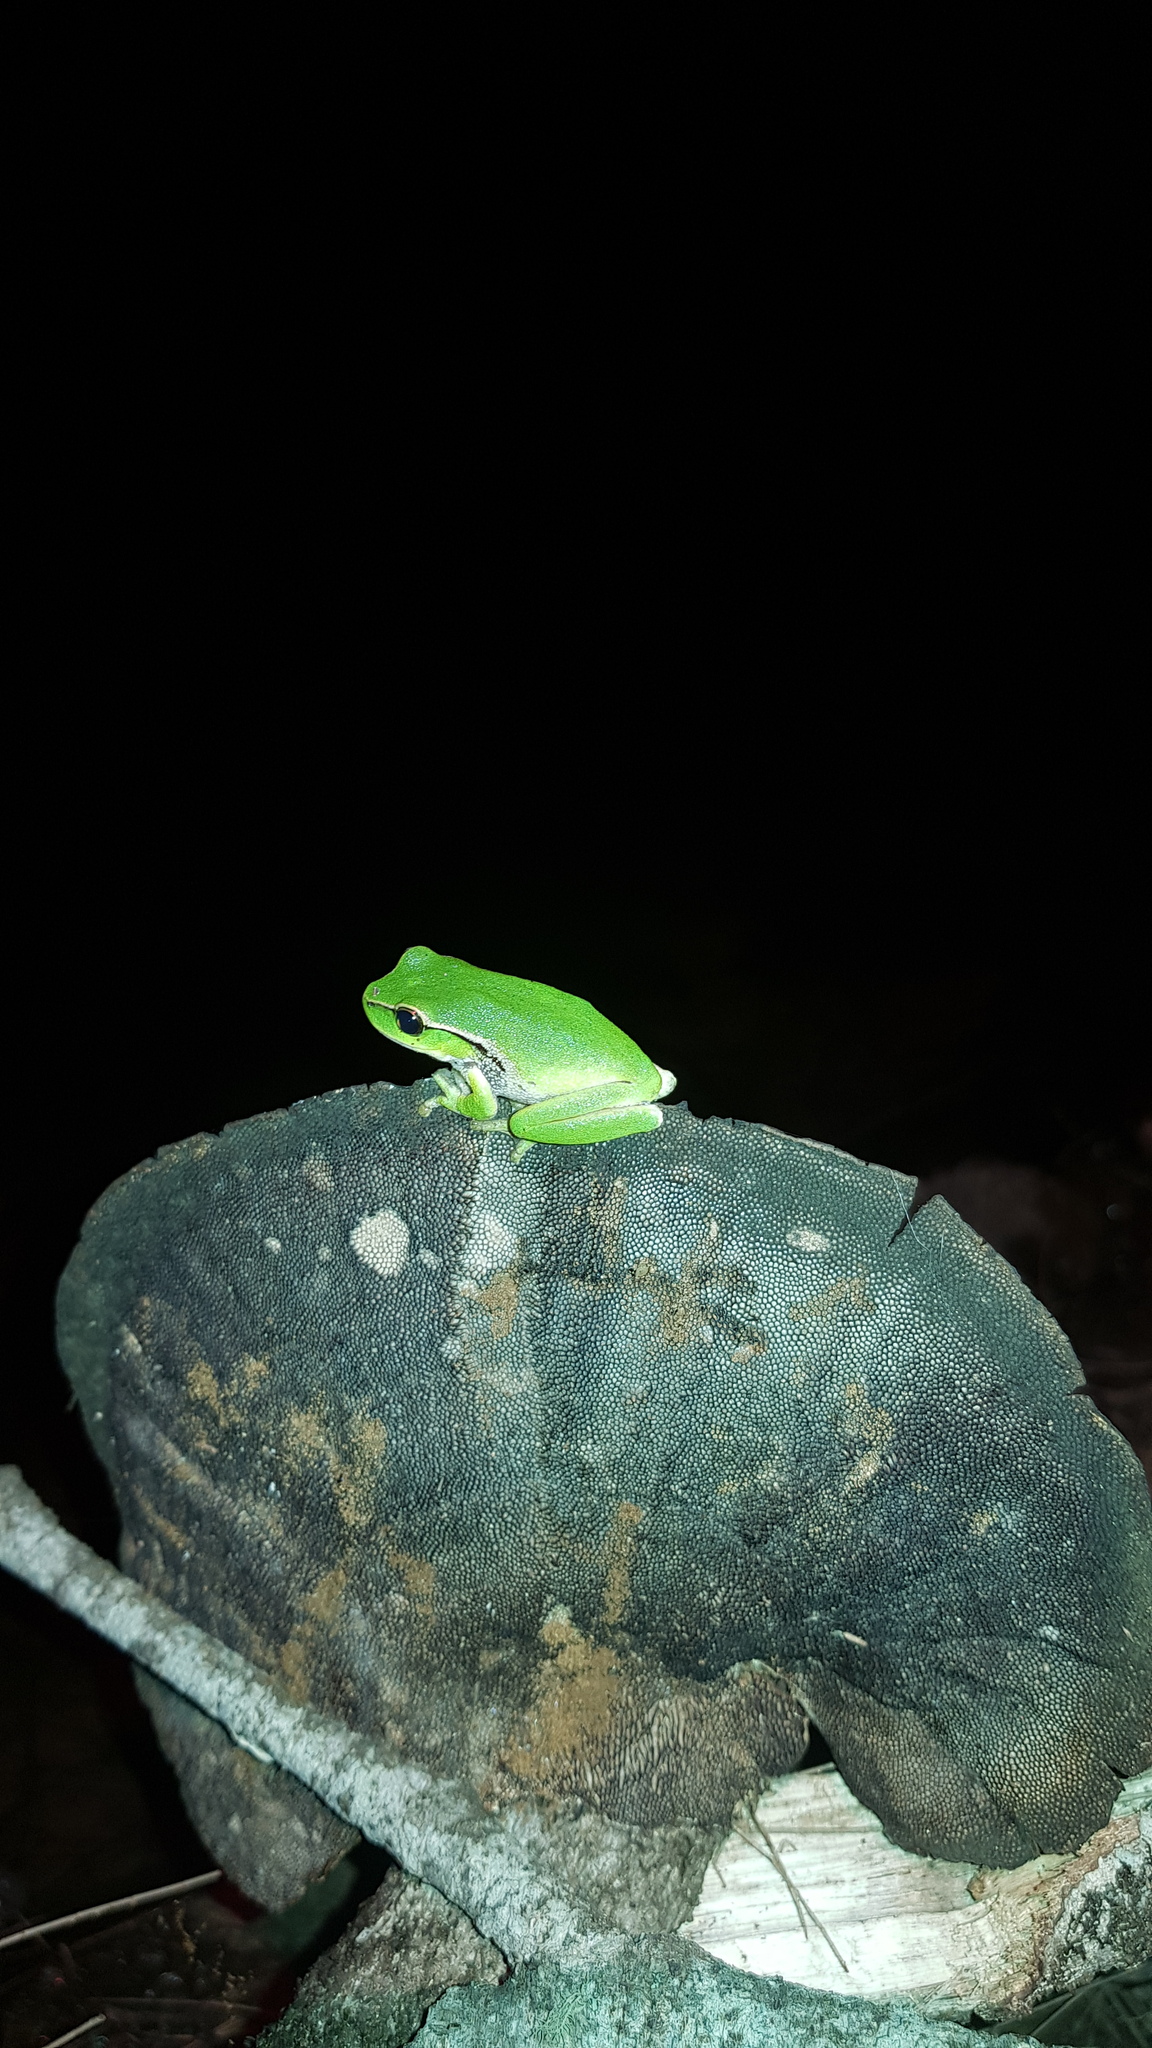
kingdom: Animalia
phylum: Chordata
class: Amphibia
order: Anura
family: Pelodryadidae
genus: Ranoidea
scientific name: Ranoidea phyllochroa
